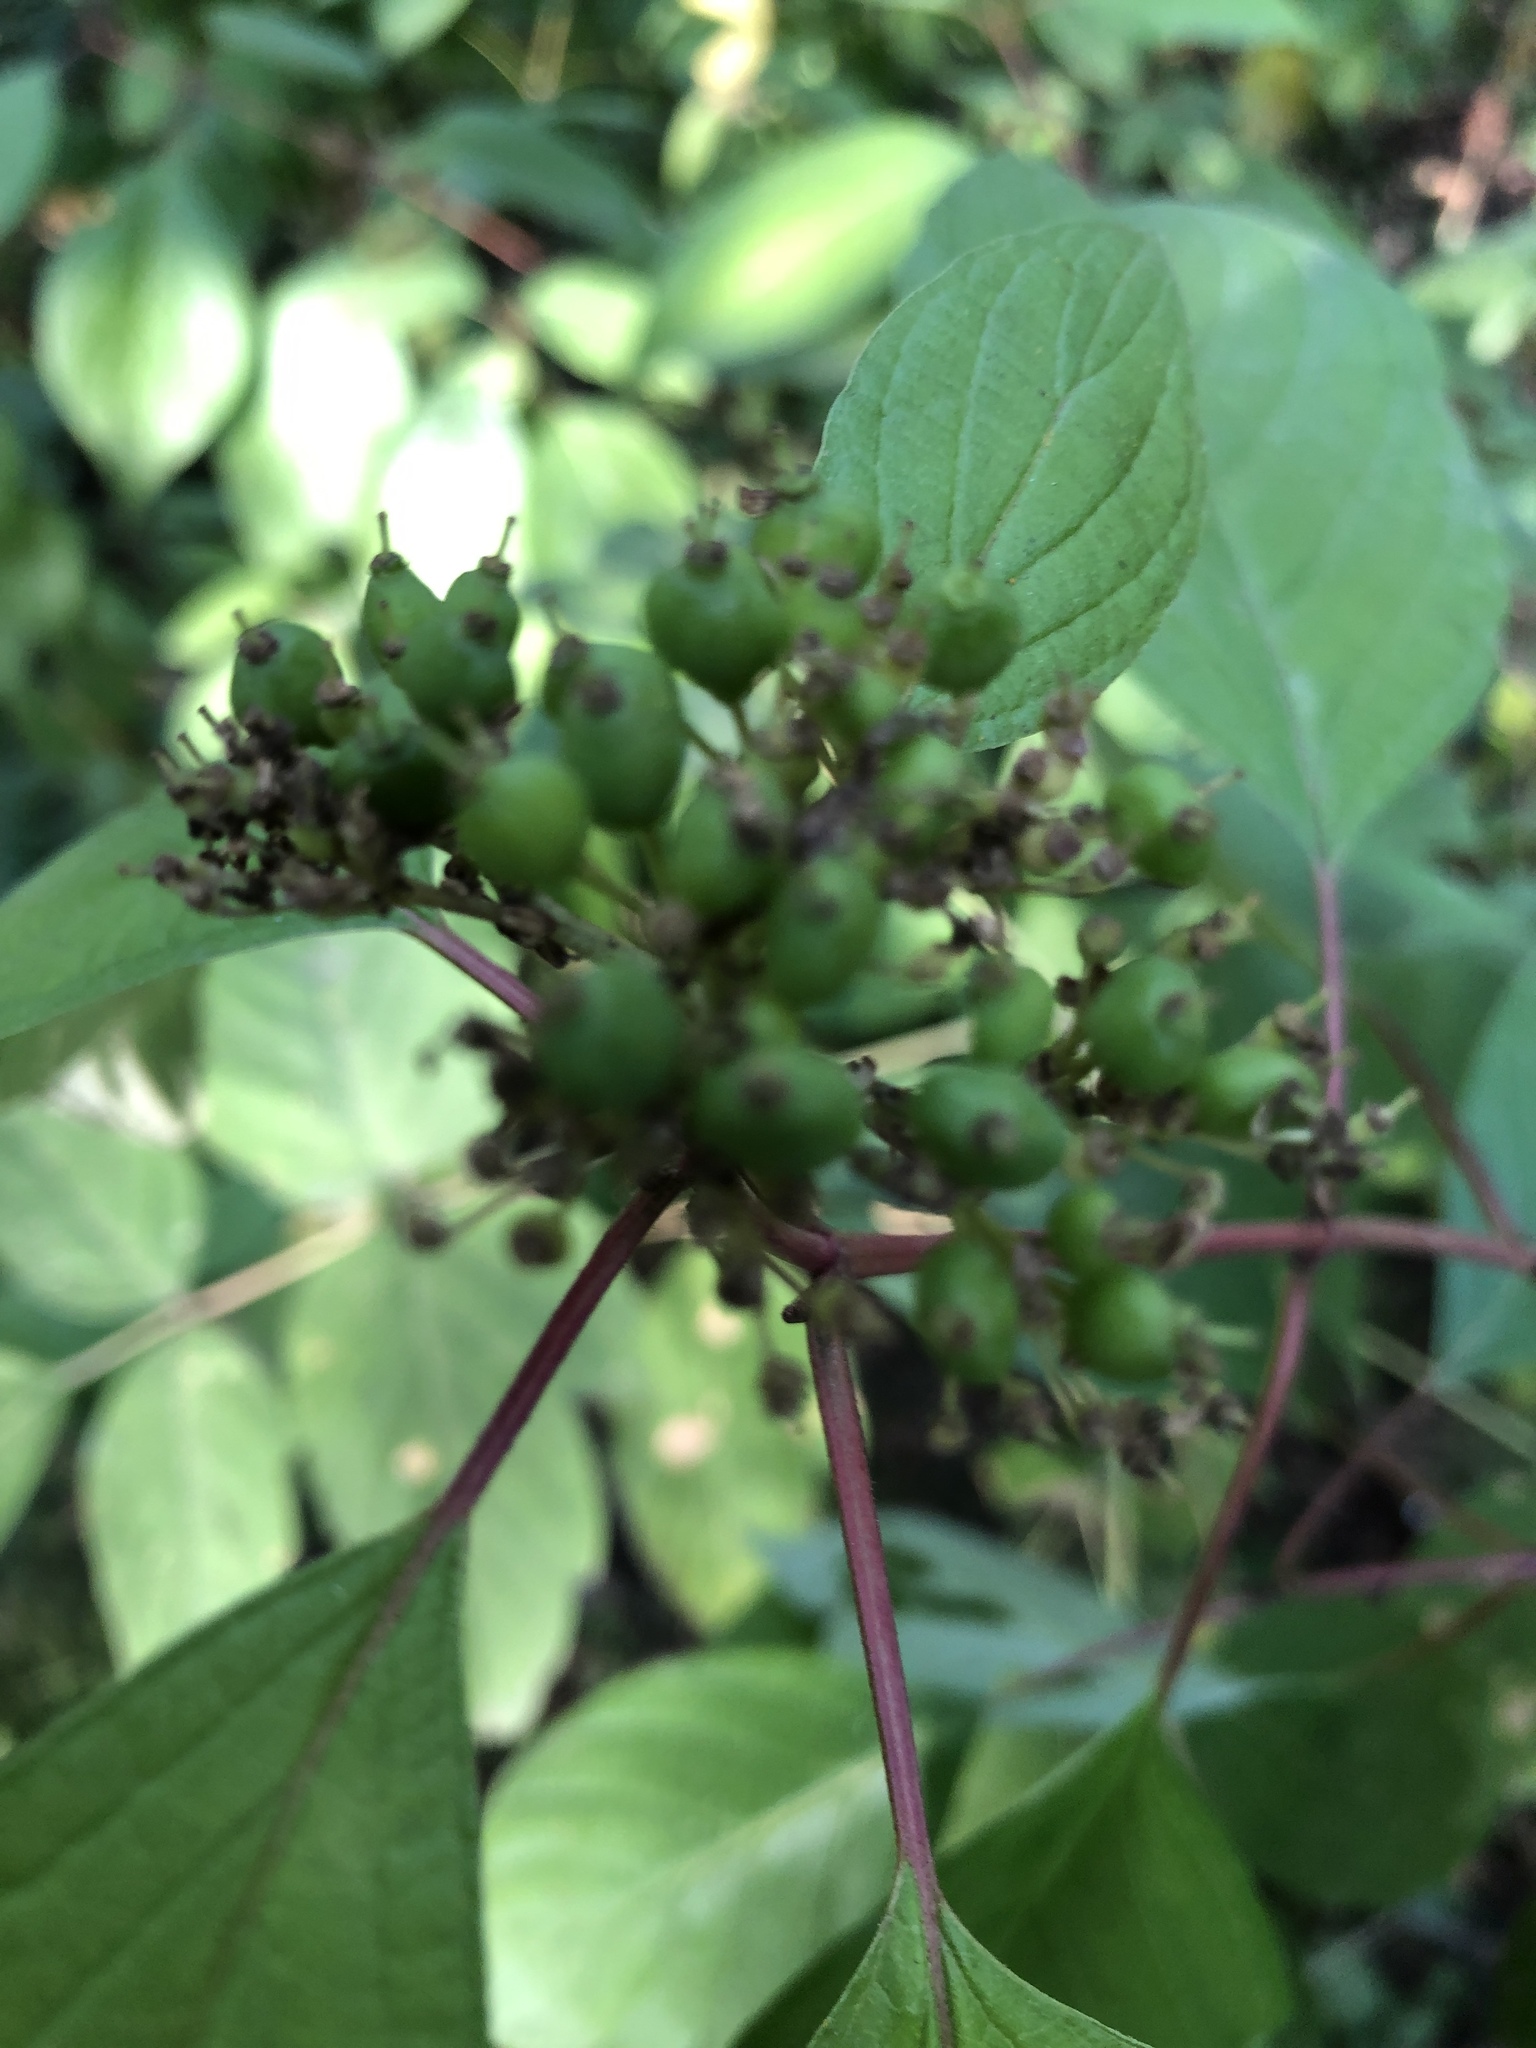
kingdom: Plantae
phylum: Tracheophyta
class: Magnoliopsida
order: Cornales
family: Cornaceae
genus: Cornus
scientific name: Cornus sericea
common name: Red-osier dogwood
